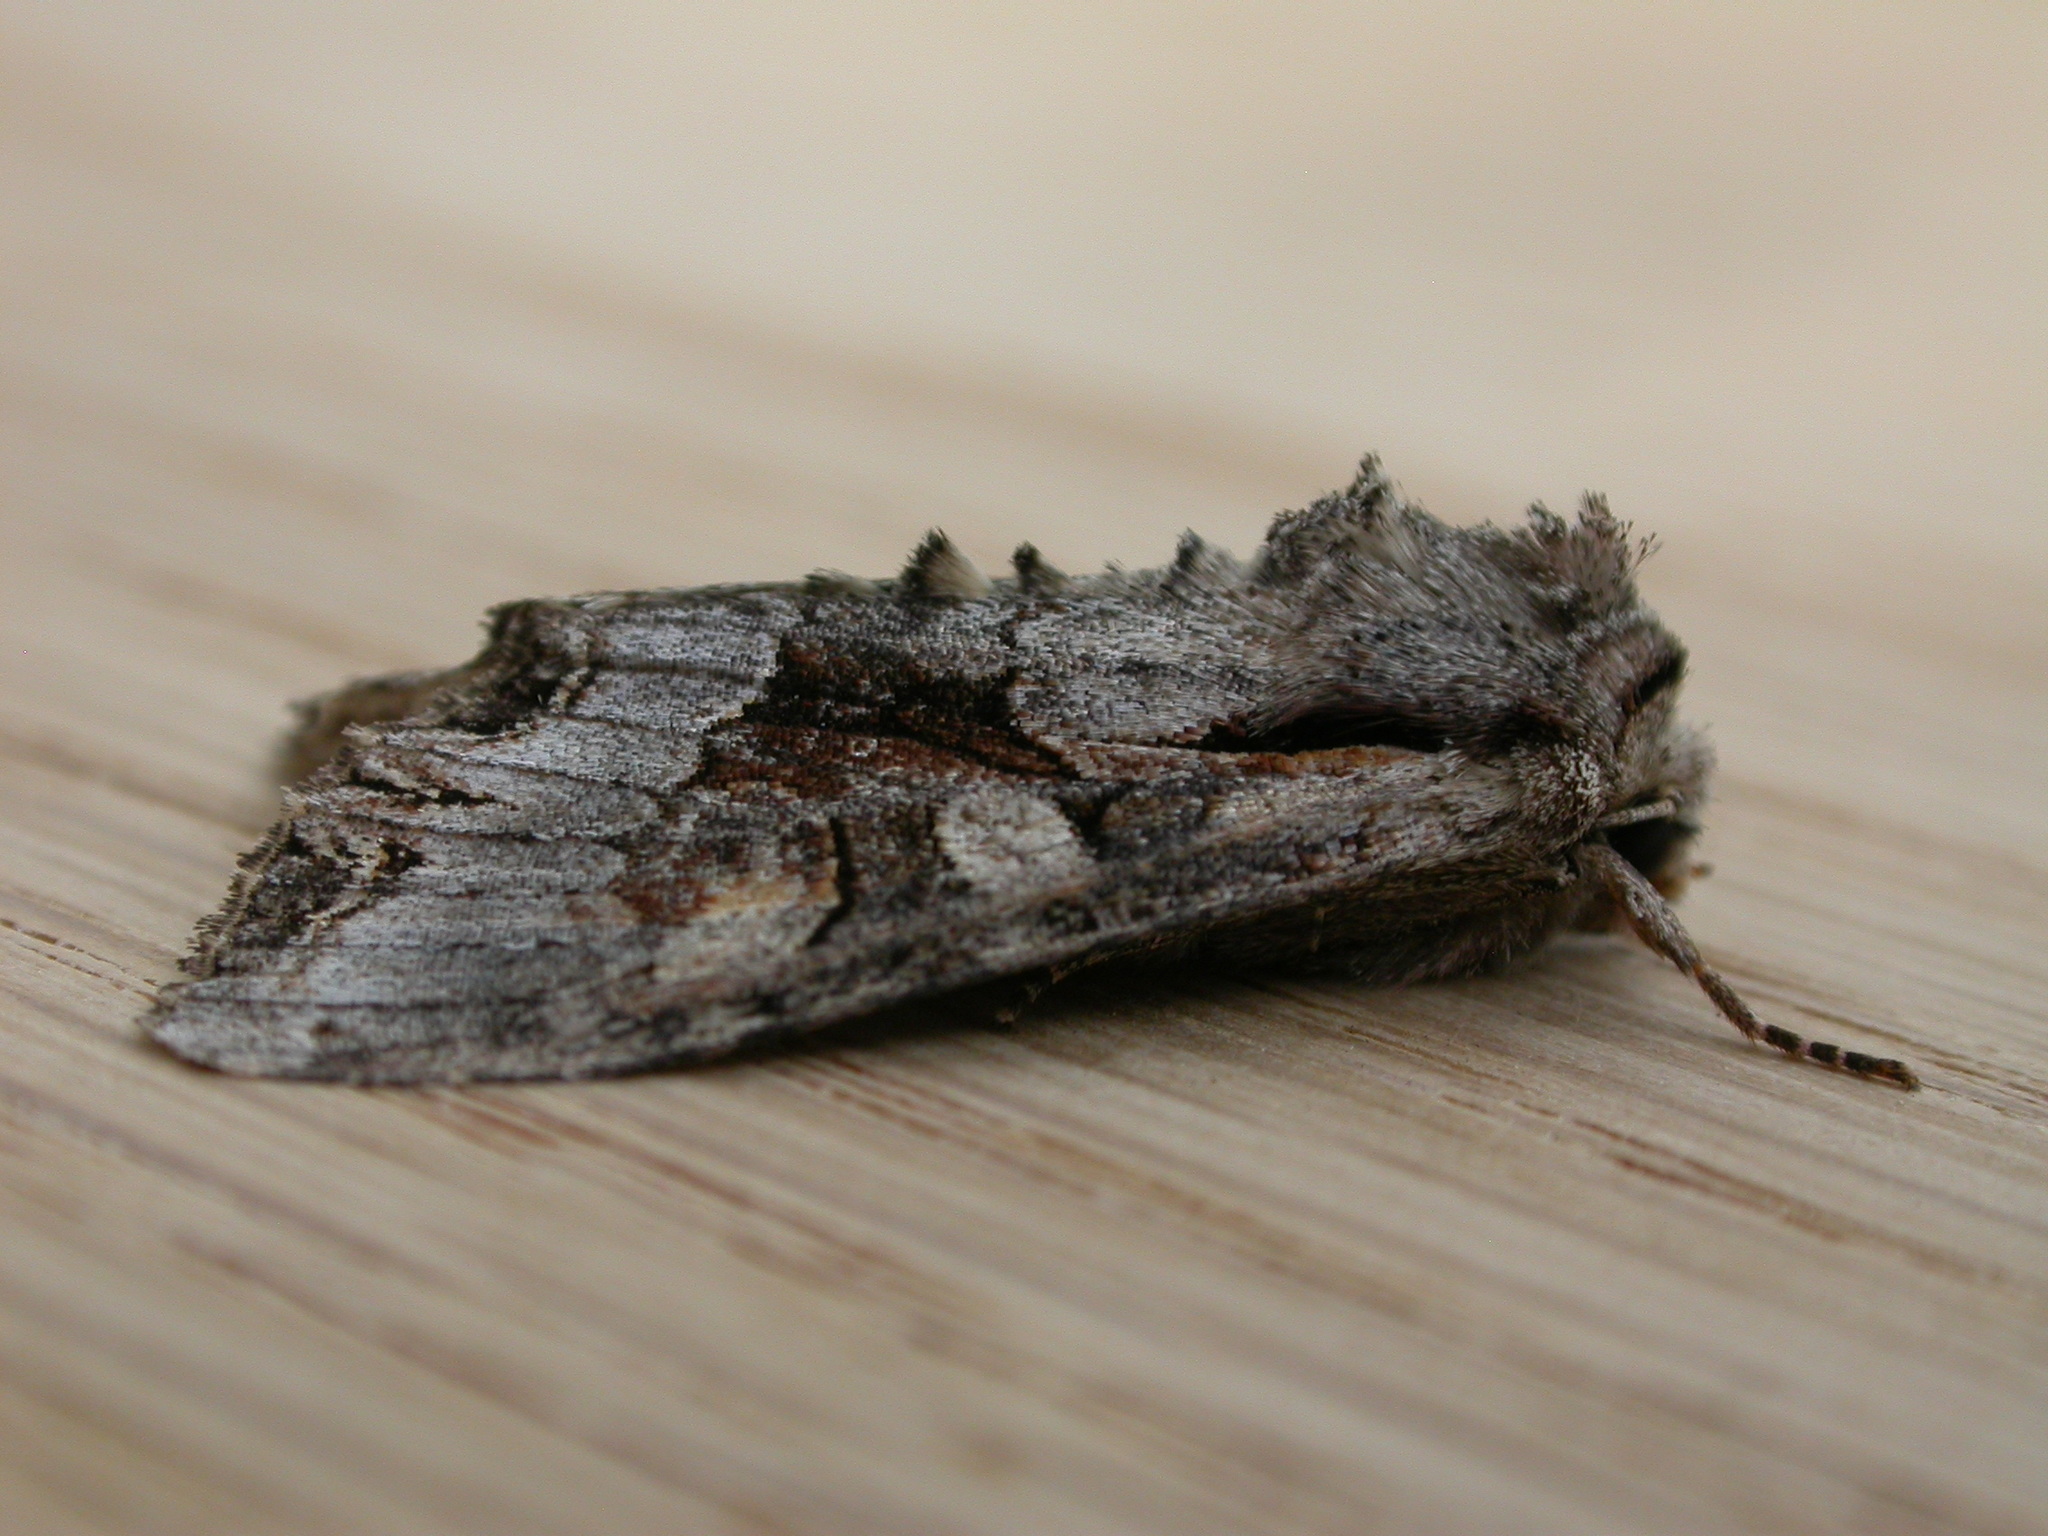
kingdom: Animalia
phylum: Arthropoda
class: Insecta
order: Lepidoptera
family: Noctuidae
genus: Lacanobia
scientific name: Lacanobia w-latinum
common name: Light brocade
